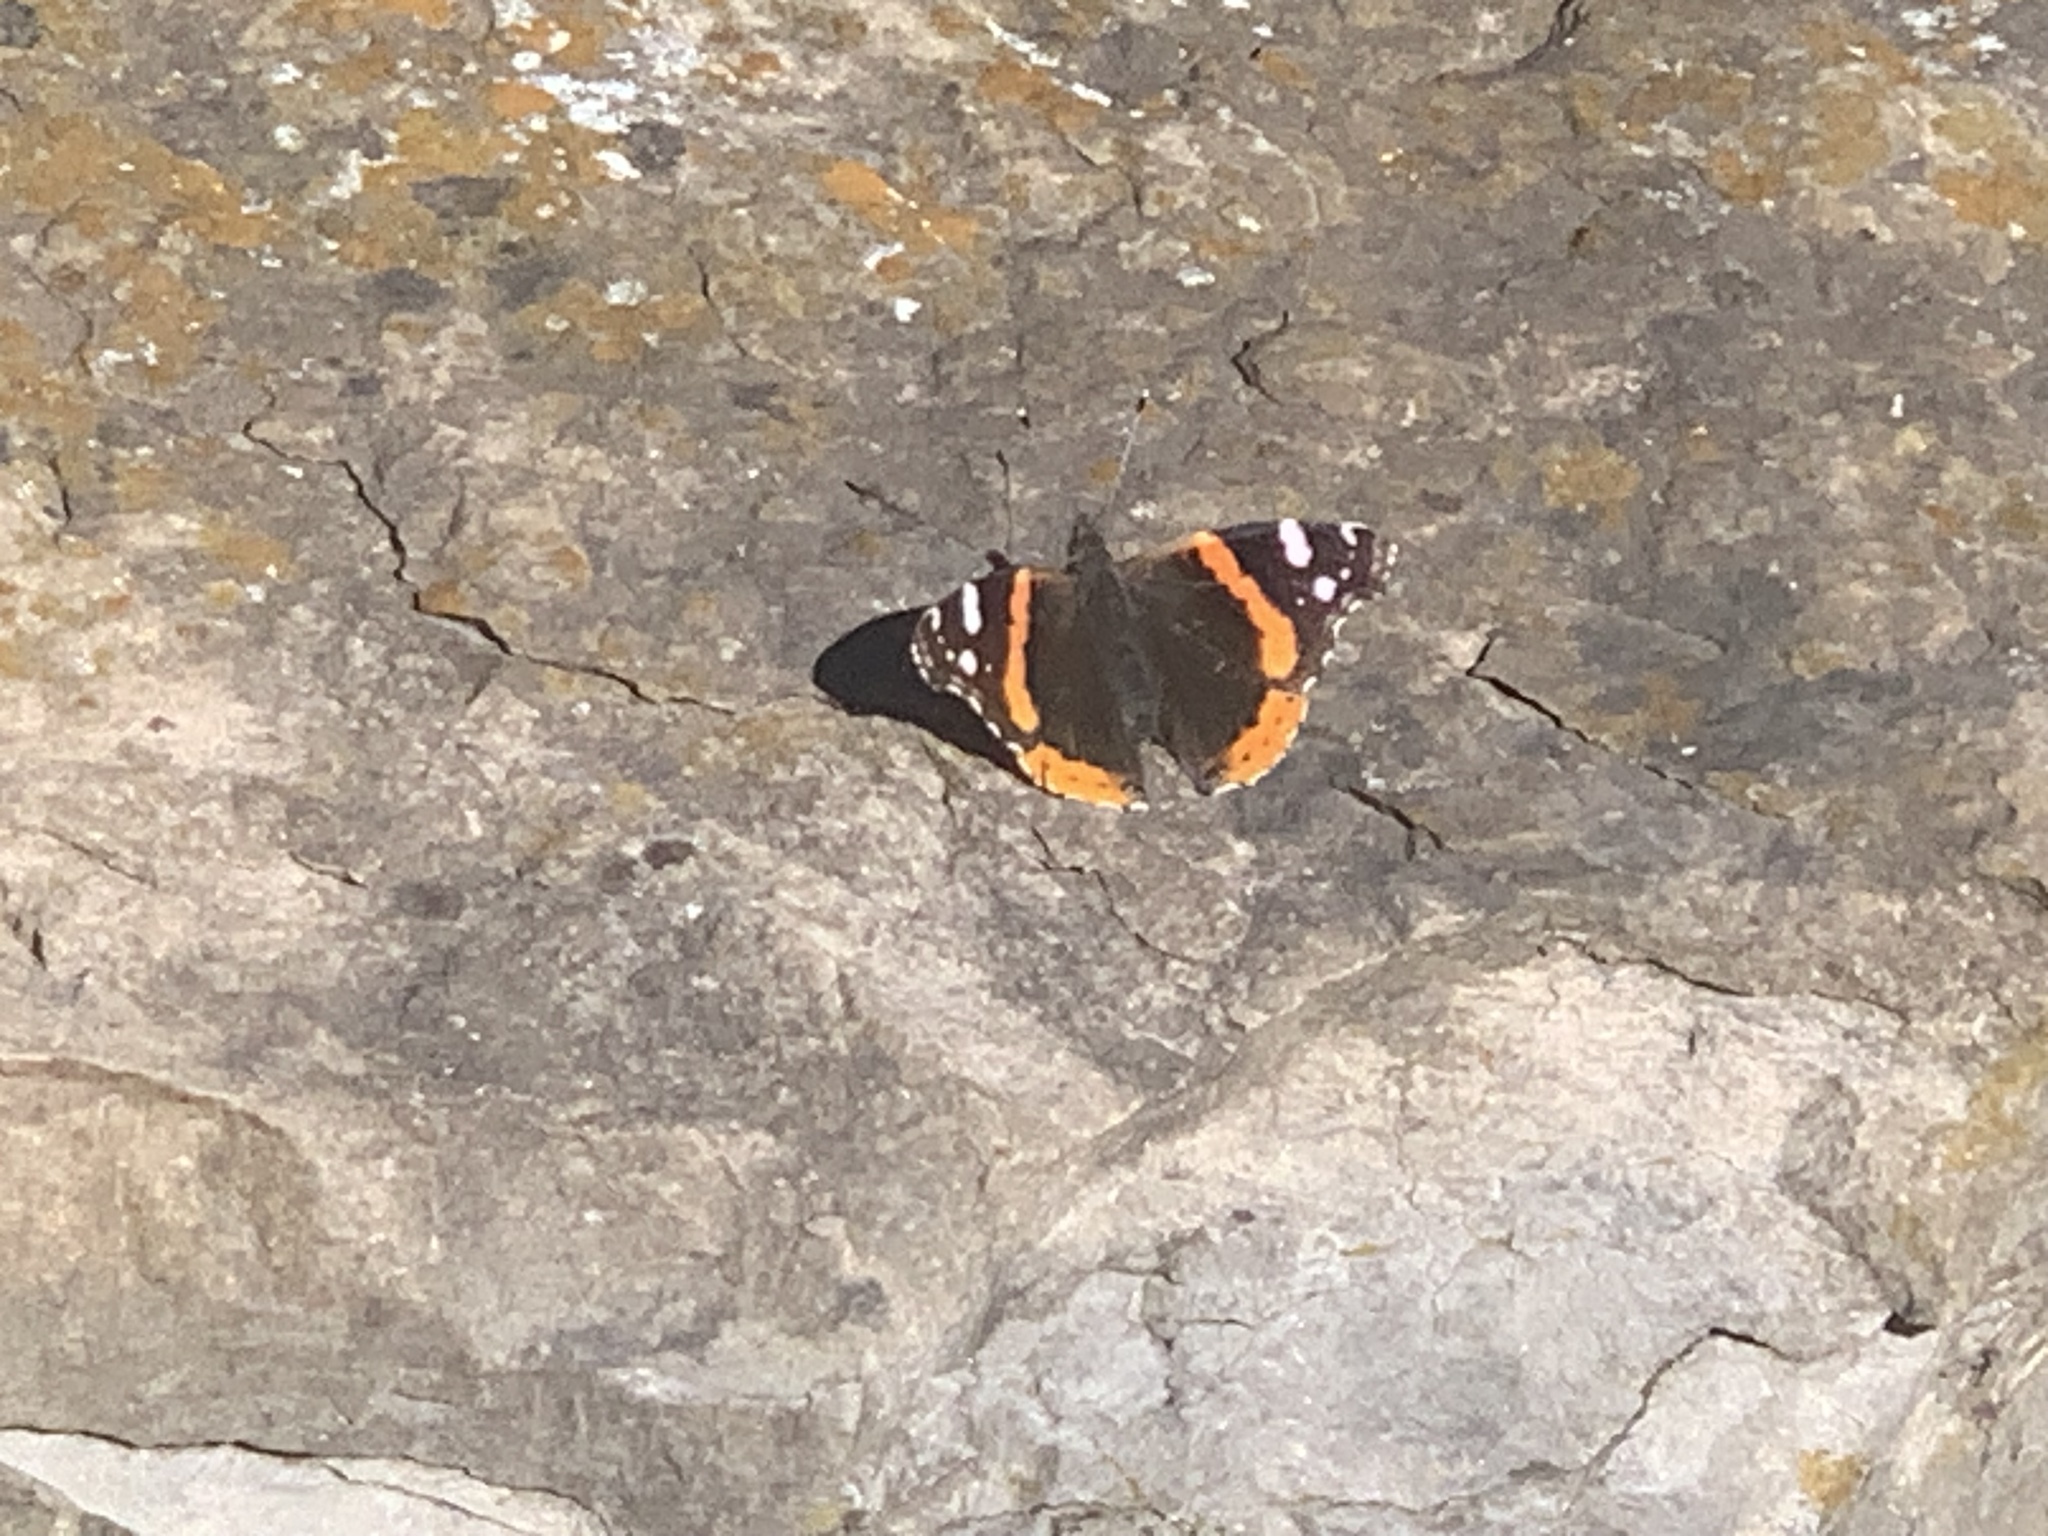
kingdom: Animalia
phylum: Arthropoda
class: Insecta
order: Lepidoptera
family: Nymphalidae
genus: Vanessa
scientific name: Vanessa atalanta
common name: Red admiral
